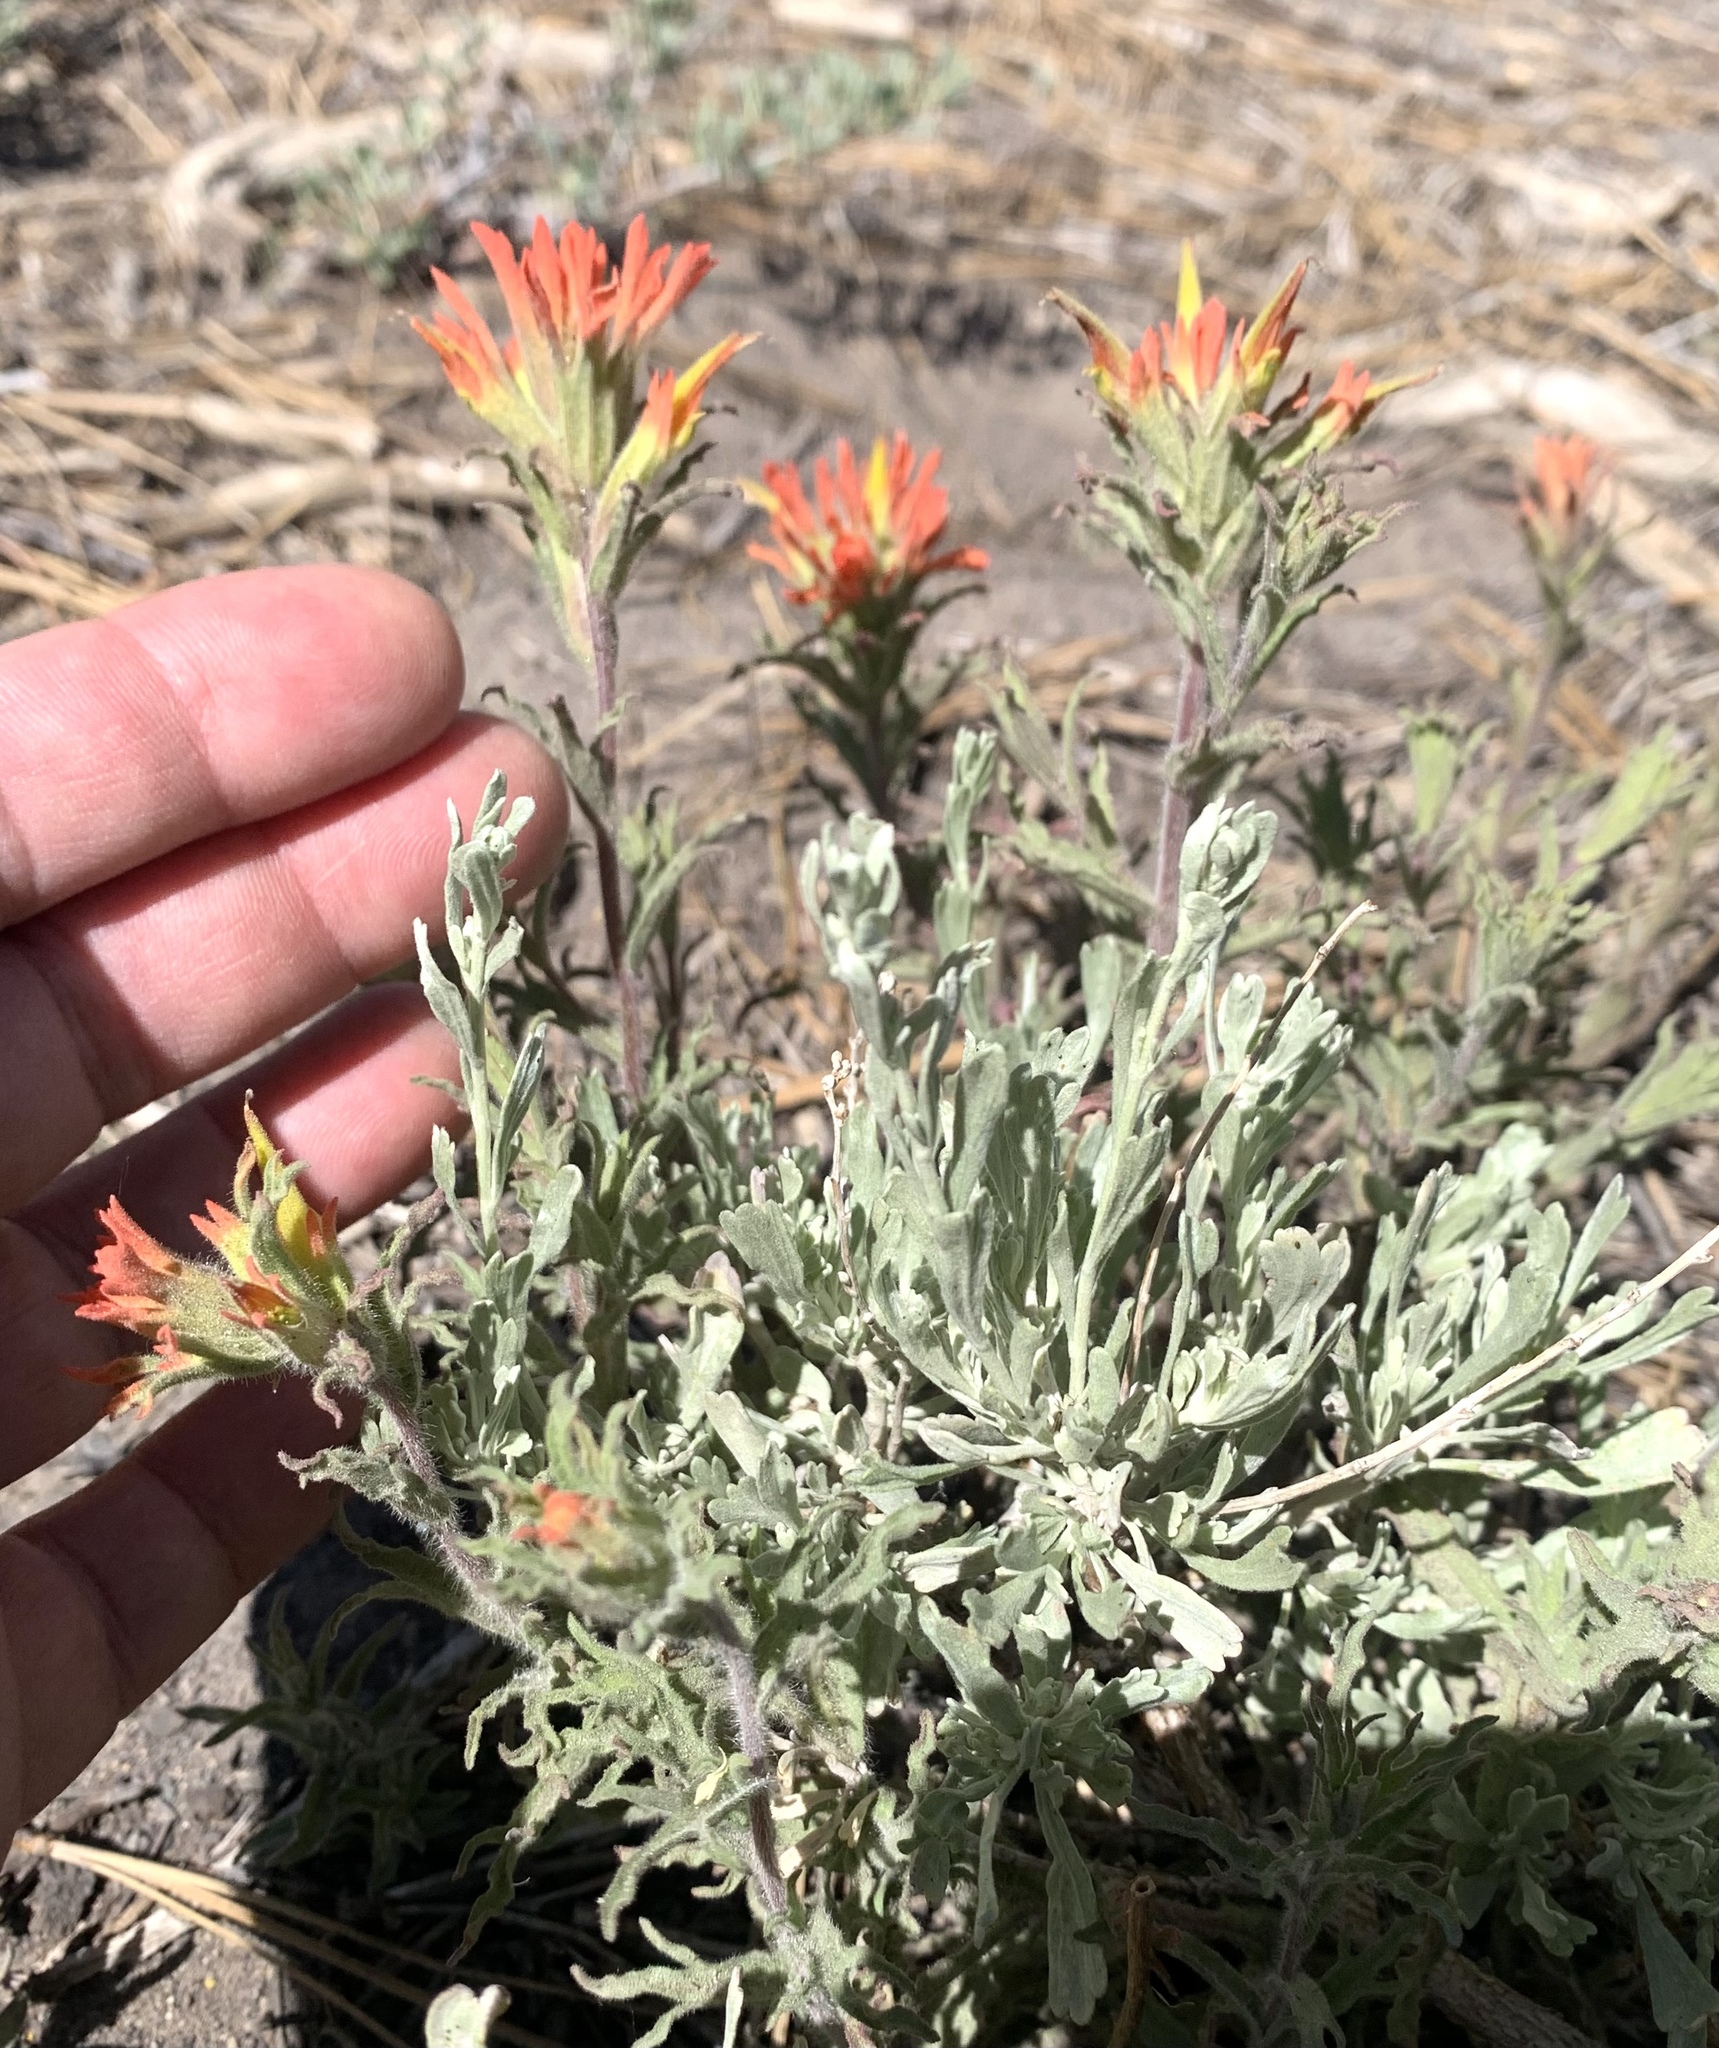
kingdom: Plantae
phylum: Tracheophyta
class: Magnoliopsida
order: Lamiales
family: Orobanchaceae
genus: Castilleja
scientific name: Castilleja applegatei
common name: Wavy-leaf paintbrush
